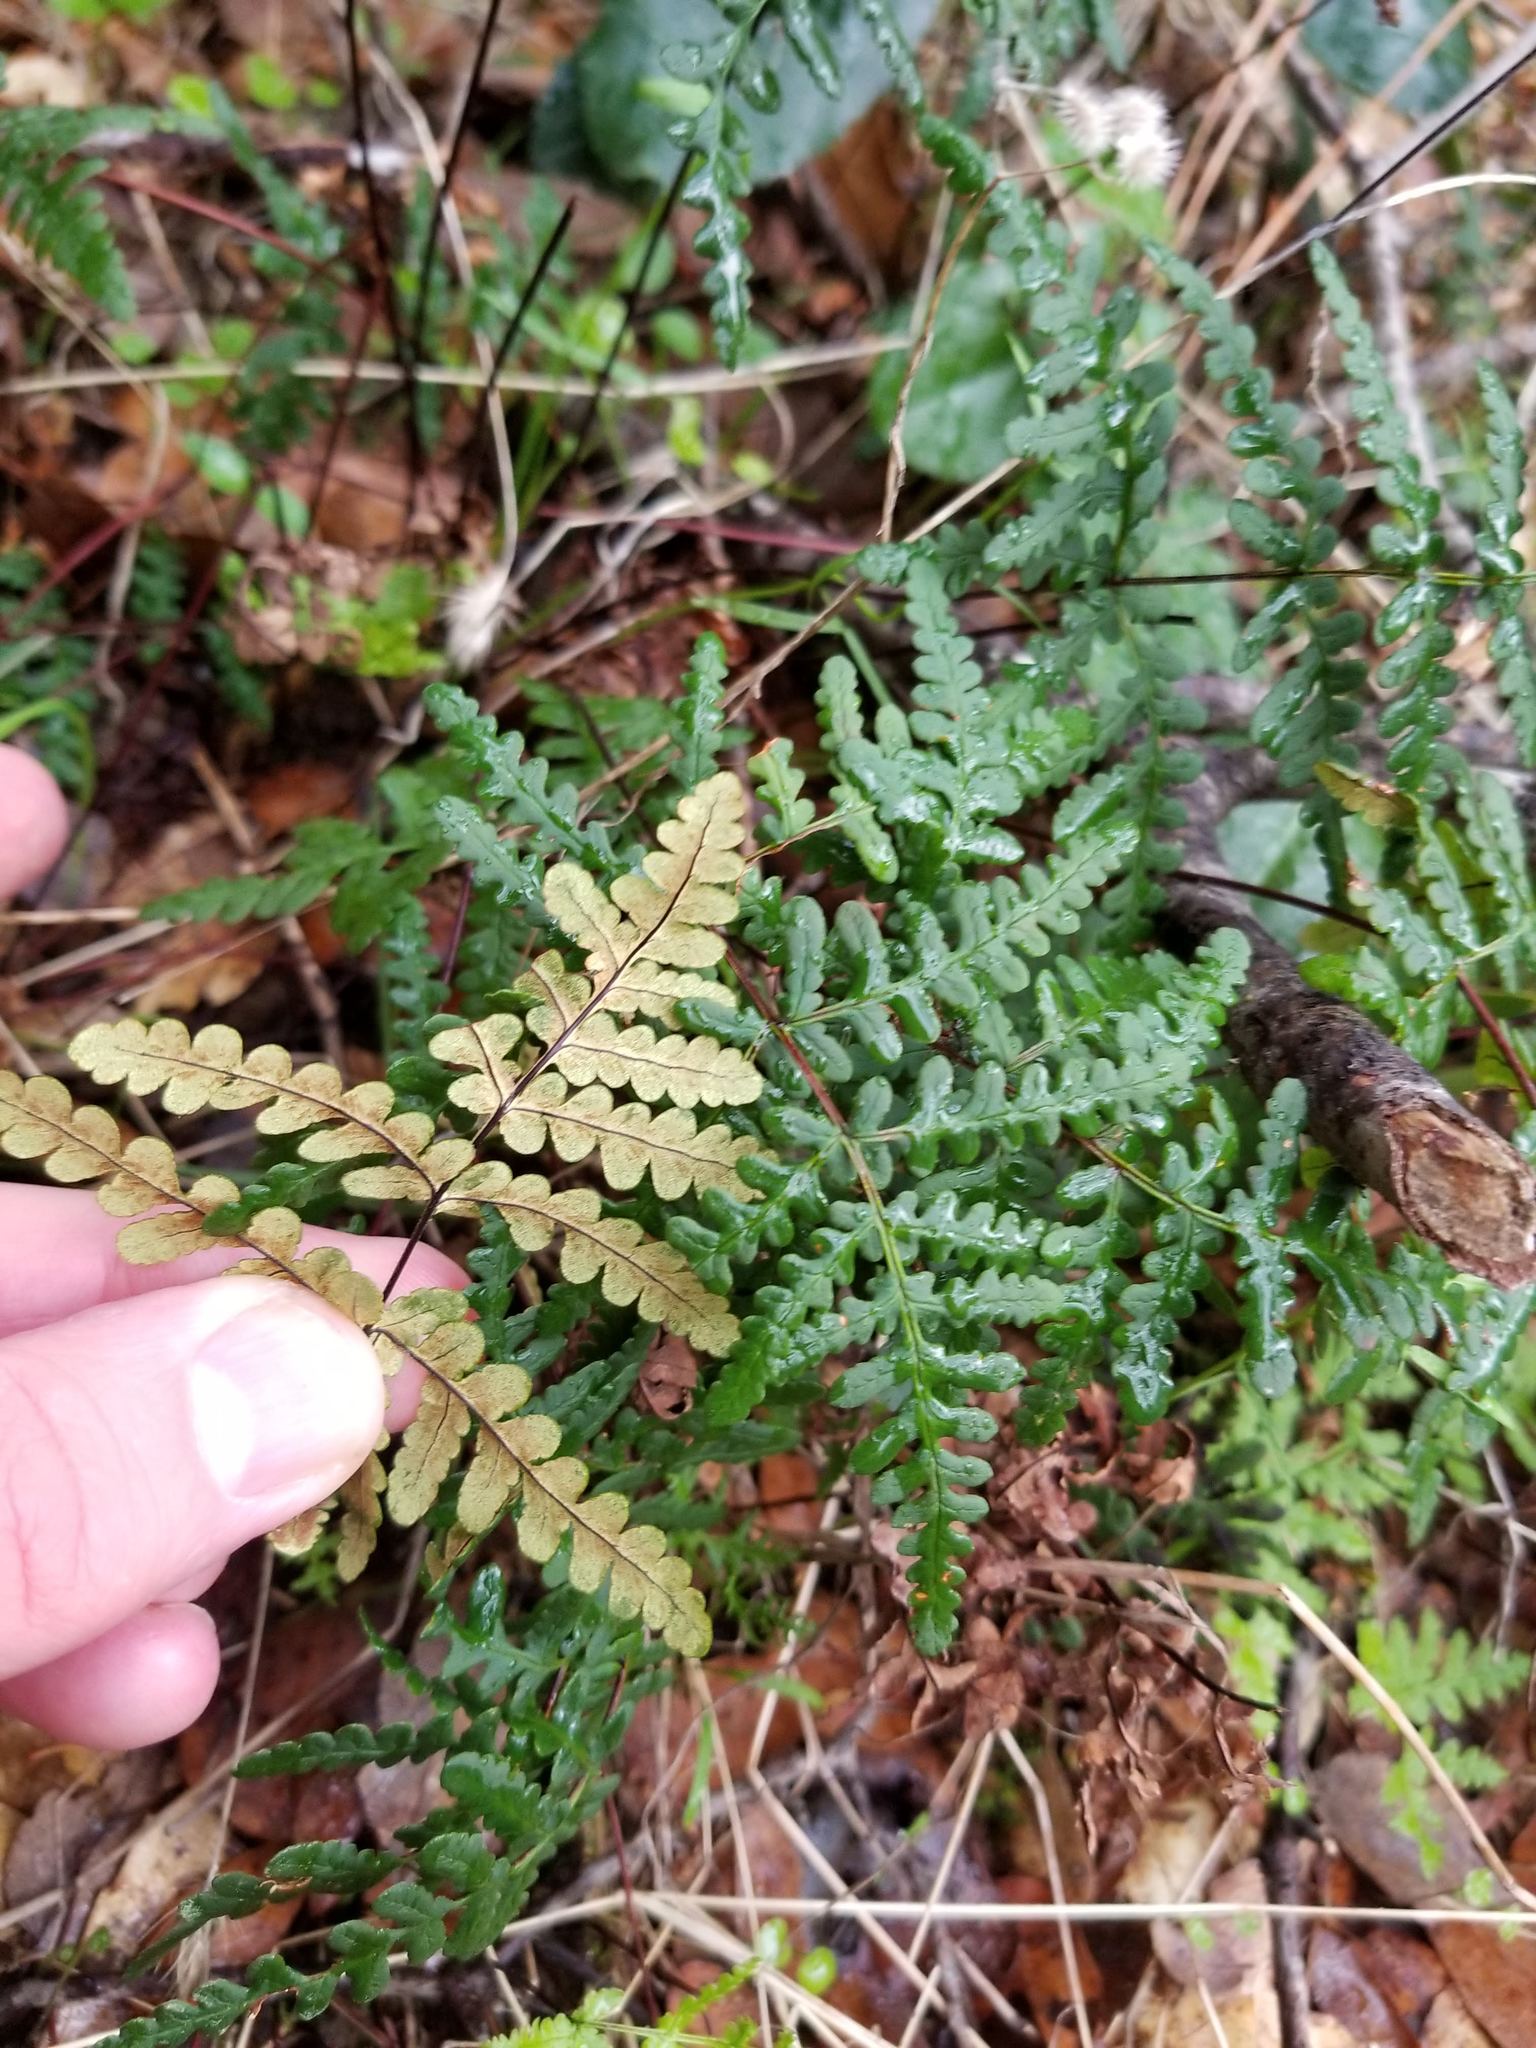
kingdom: Plantae
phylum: Tracheophyta
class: Polypodiopsida
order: Polypodiales
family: Pteridaceae
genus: Pentagramma
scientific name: Pentagramma triangularis
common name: Gold fern
